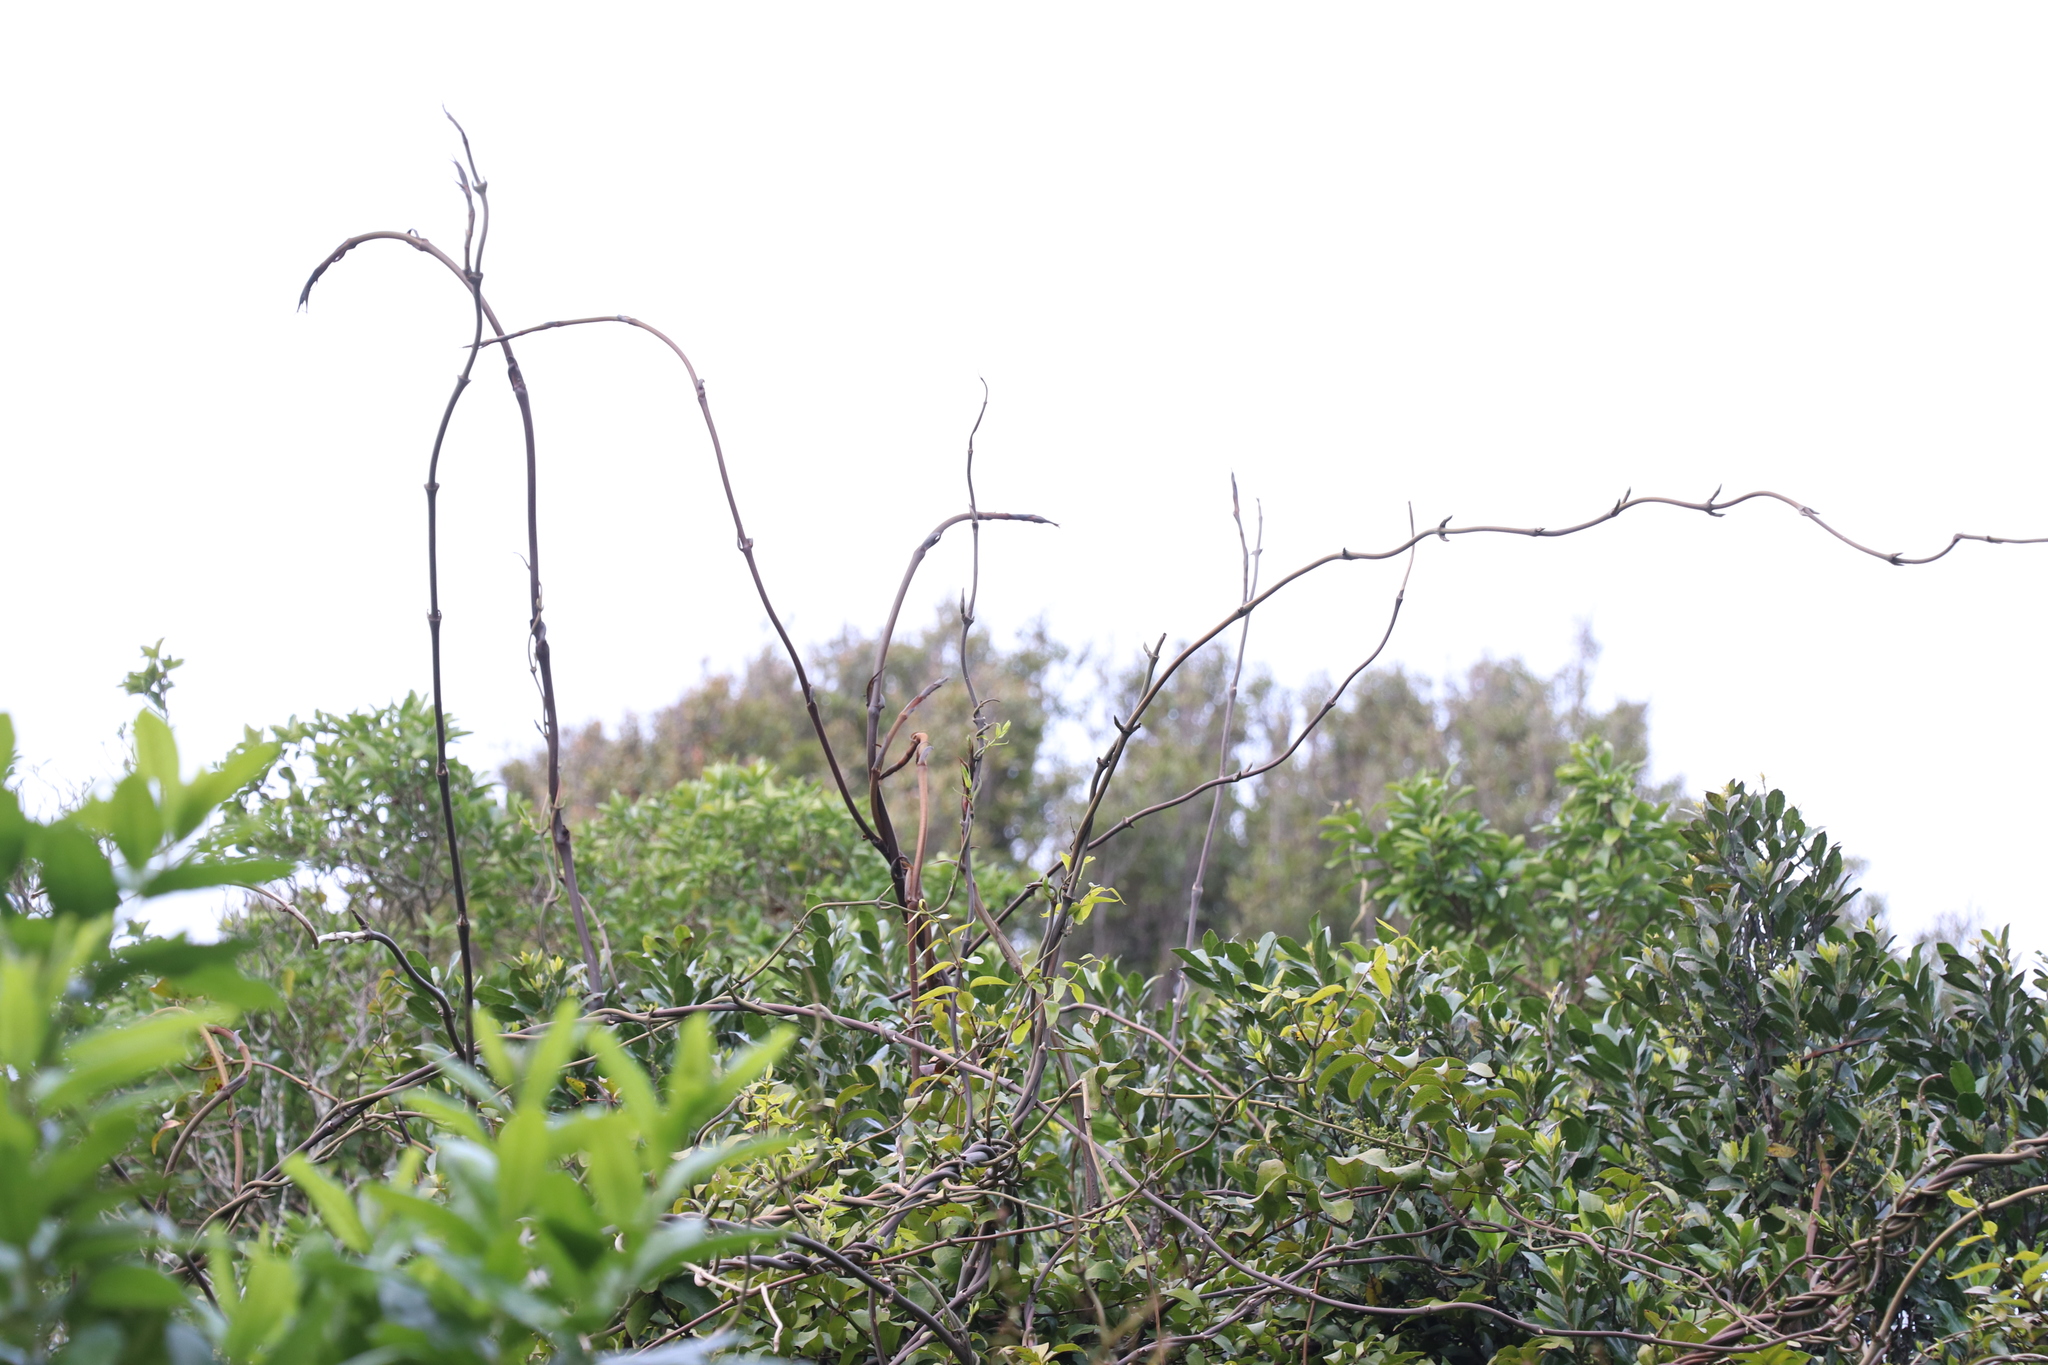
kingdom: Plantae
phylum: Tracheophyta
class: Liliopsida
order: Liliales
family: Ripogonaceae
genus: Ripogonum
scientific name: Ripogonum scandens
